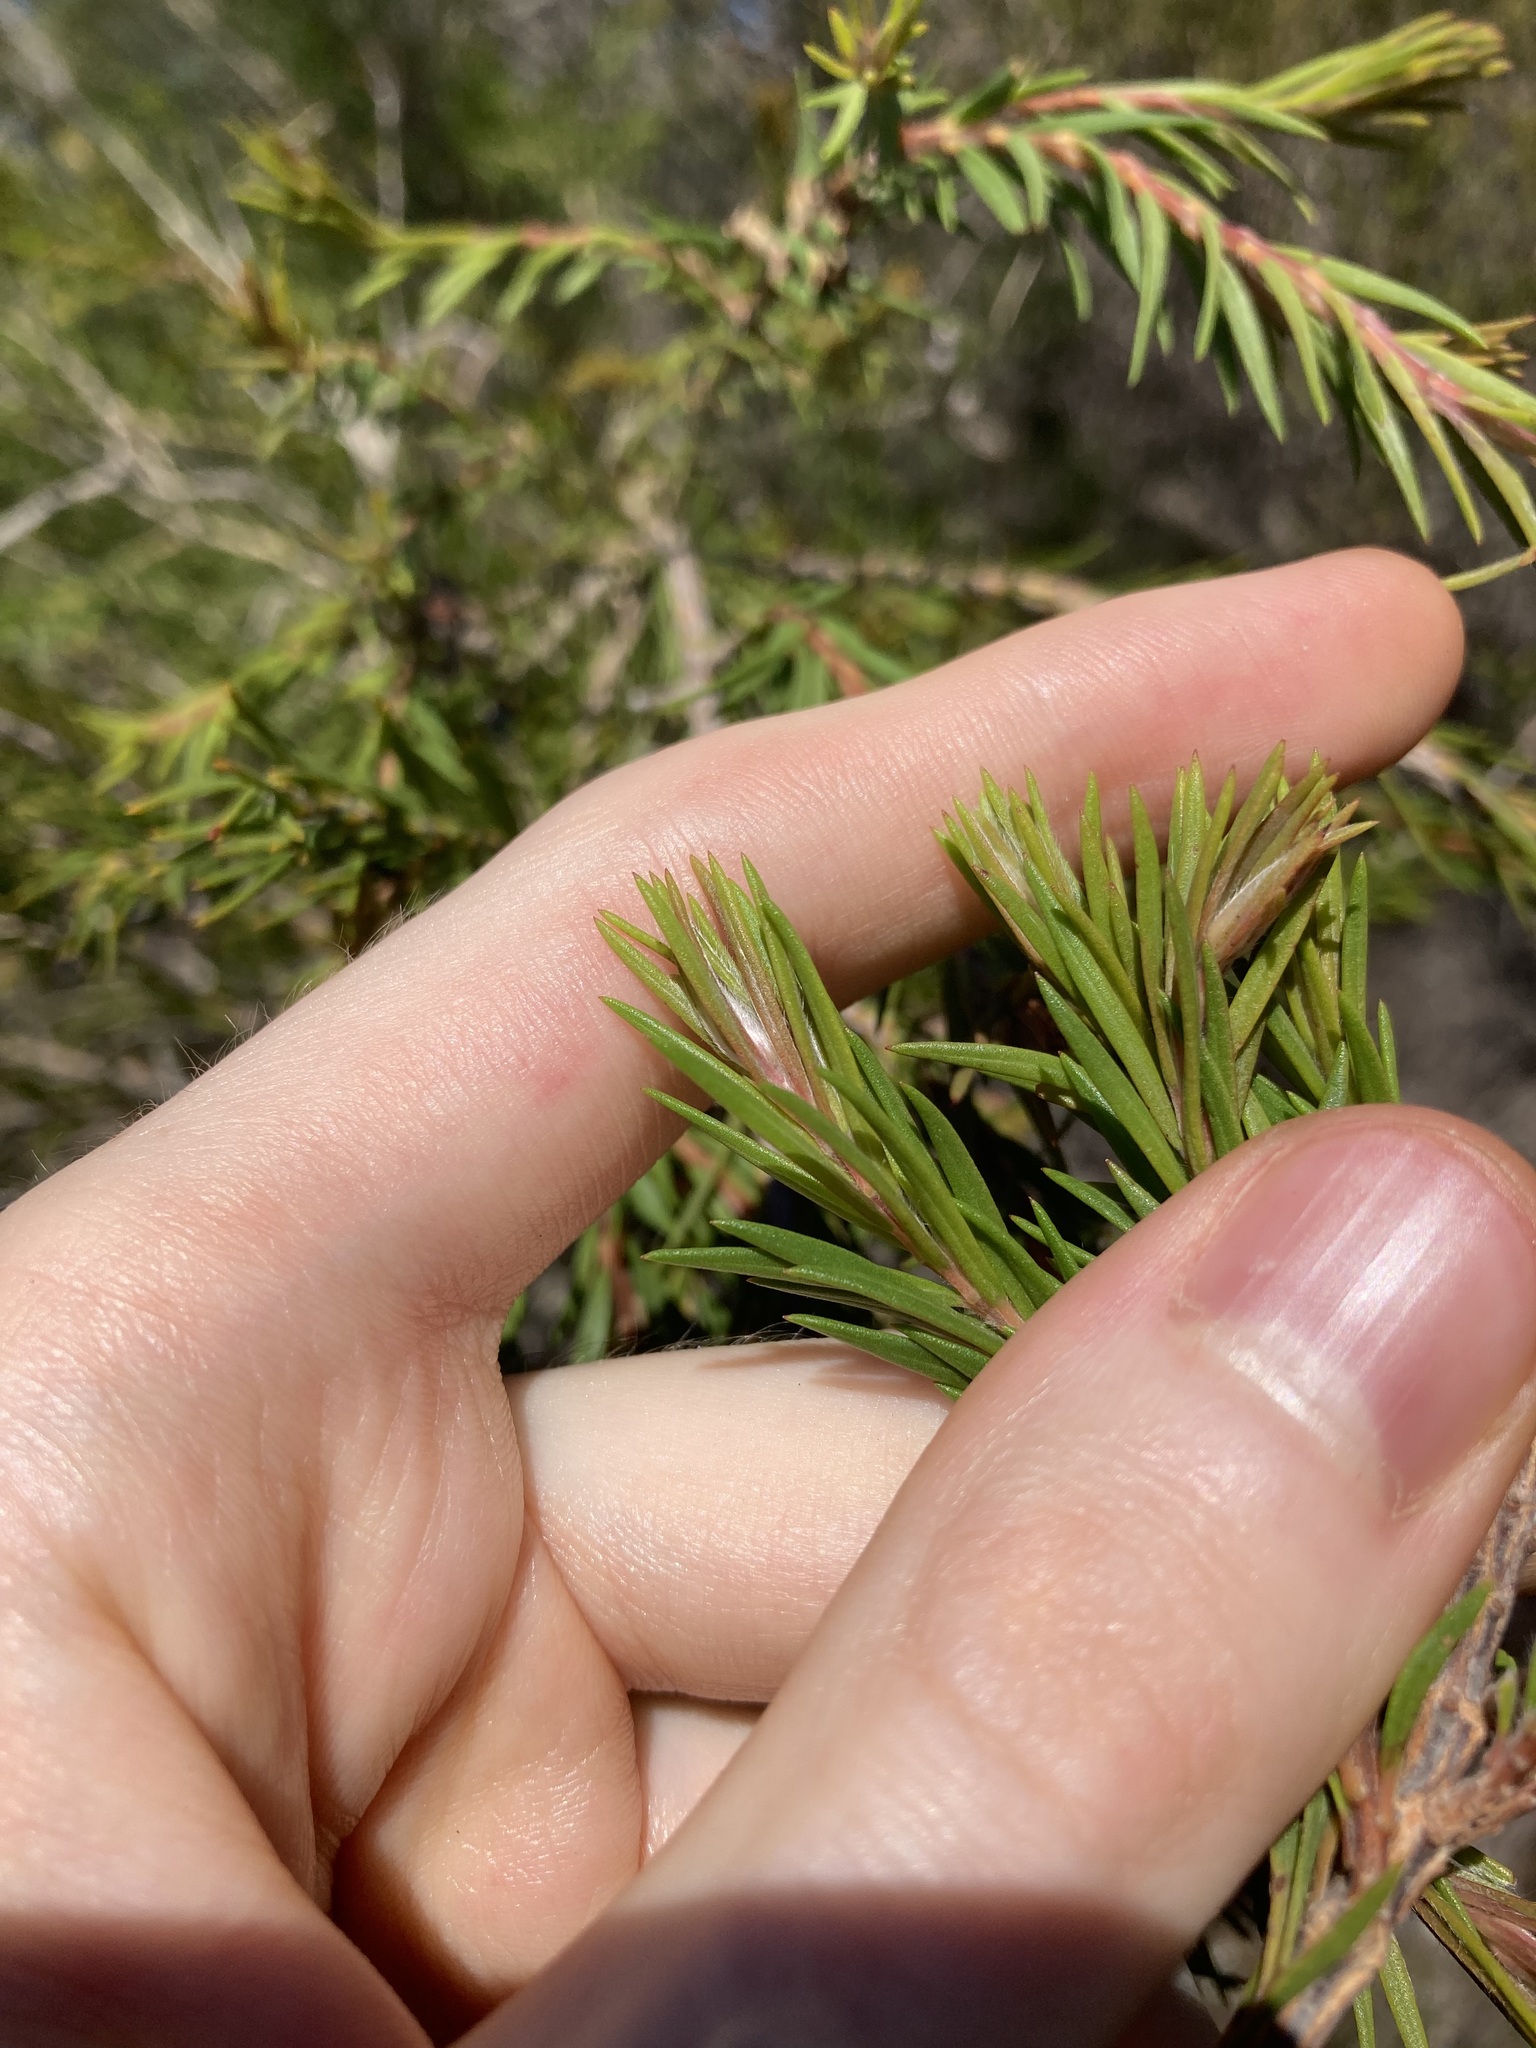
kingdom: Plantae
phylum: Tracheophyta
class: Magnoliopsida
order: Myrtales
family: Myrtaceae
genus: Melaleuca
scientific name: Melaleuca capitata
